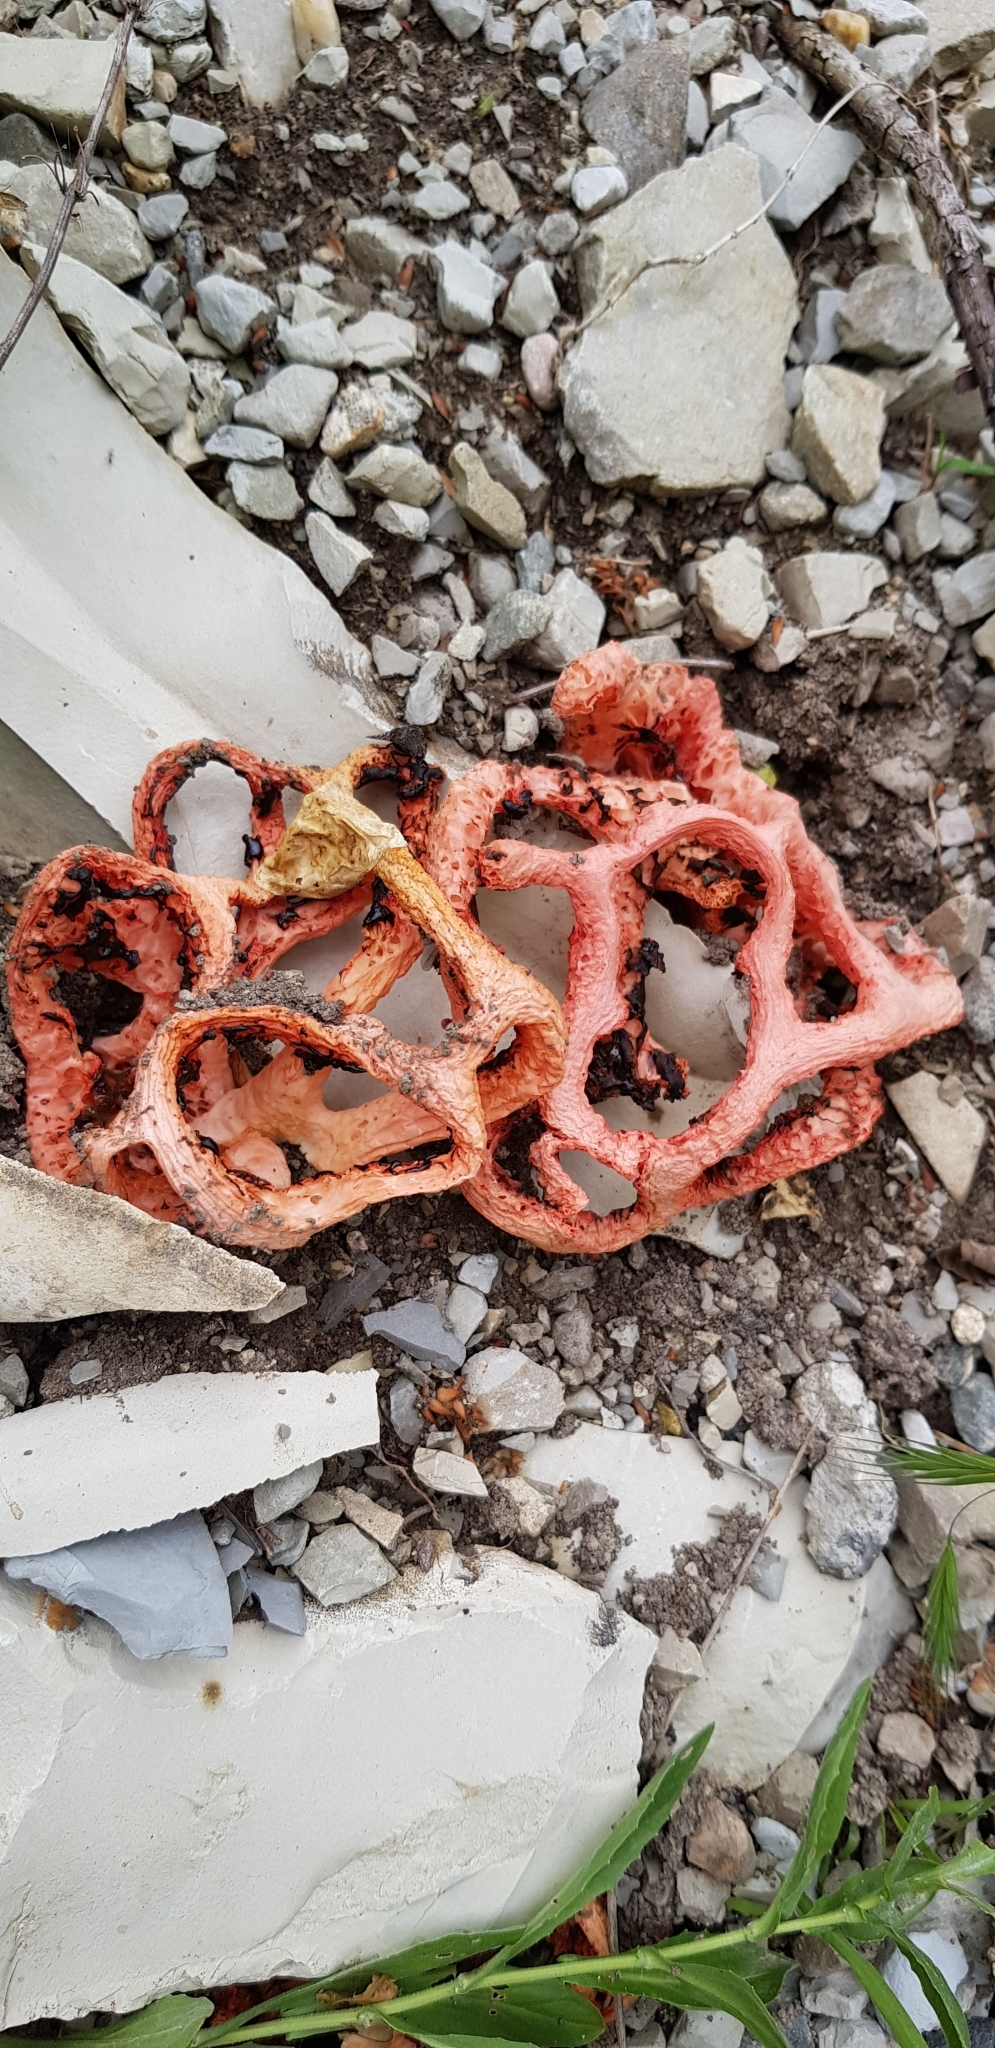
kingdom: Fungi
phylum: Basidiomycota
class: Agaricomycetes
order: Phallales
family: Phallaceae
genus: Clathrus
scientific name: Clathrus ruber
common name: Red cage
